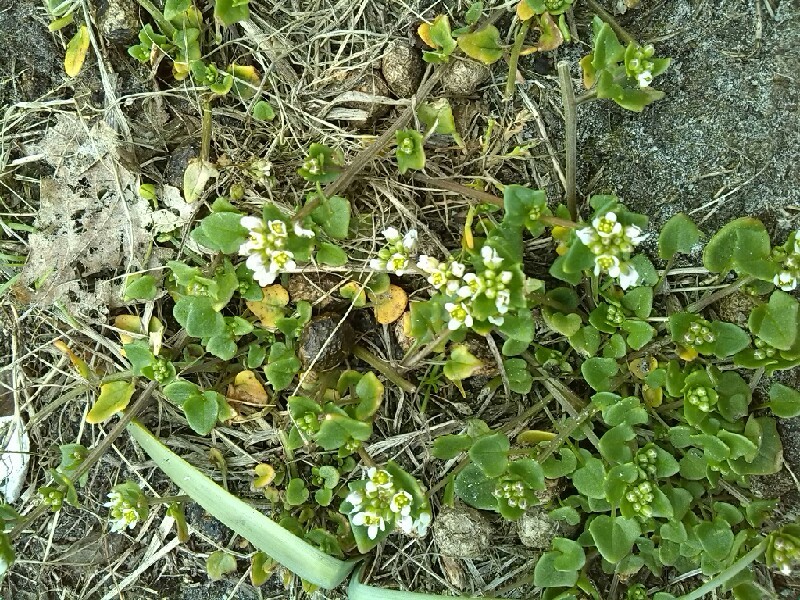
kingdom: Plantae
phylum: Tracheophyta
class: Magnoliopsida
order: Brassicales
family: Brassicaceae
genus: Cochlearia
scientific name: Cochlearia danica
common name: Early scurvygrass
